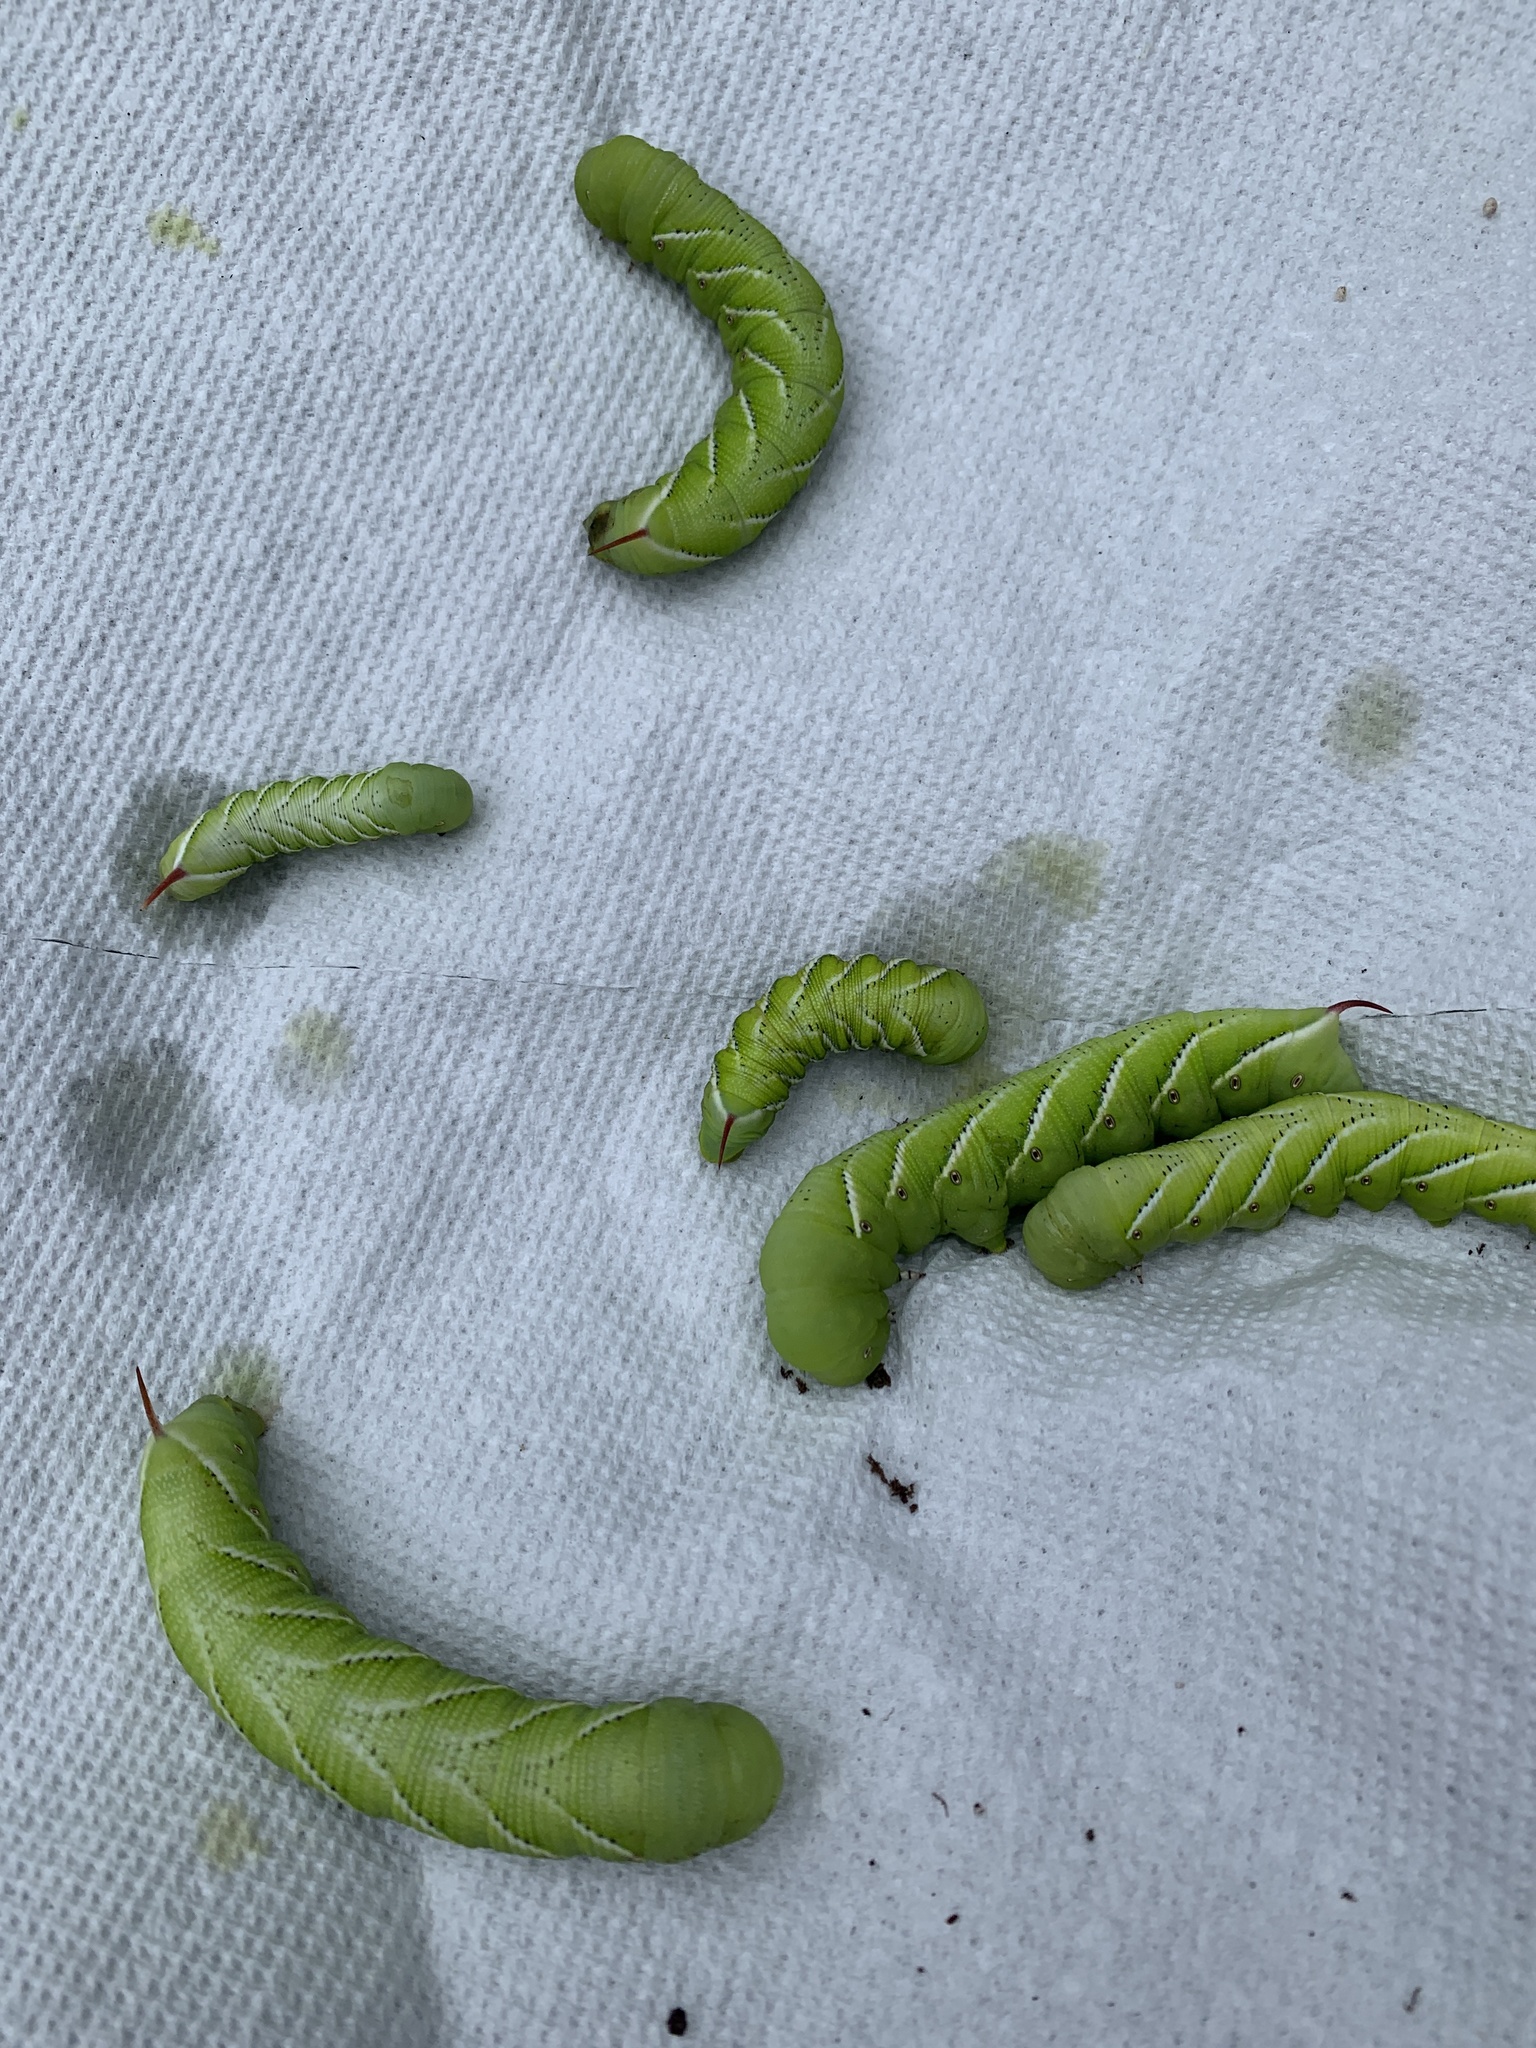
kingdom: Animalia
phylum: Arthropoda
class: Insecta
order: Lepidoptera
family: Sphingidae
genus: Manduca
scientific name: Manduca sexta
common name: Carolina sphinx
